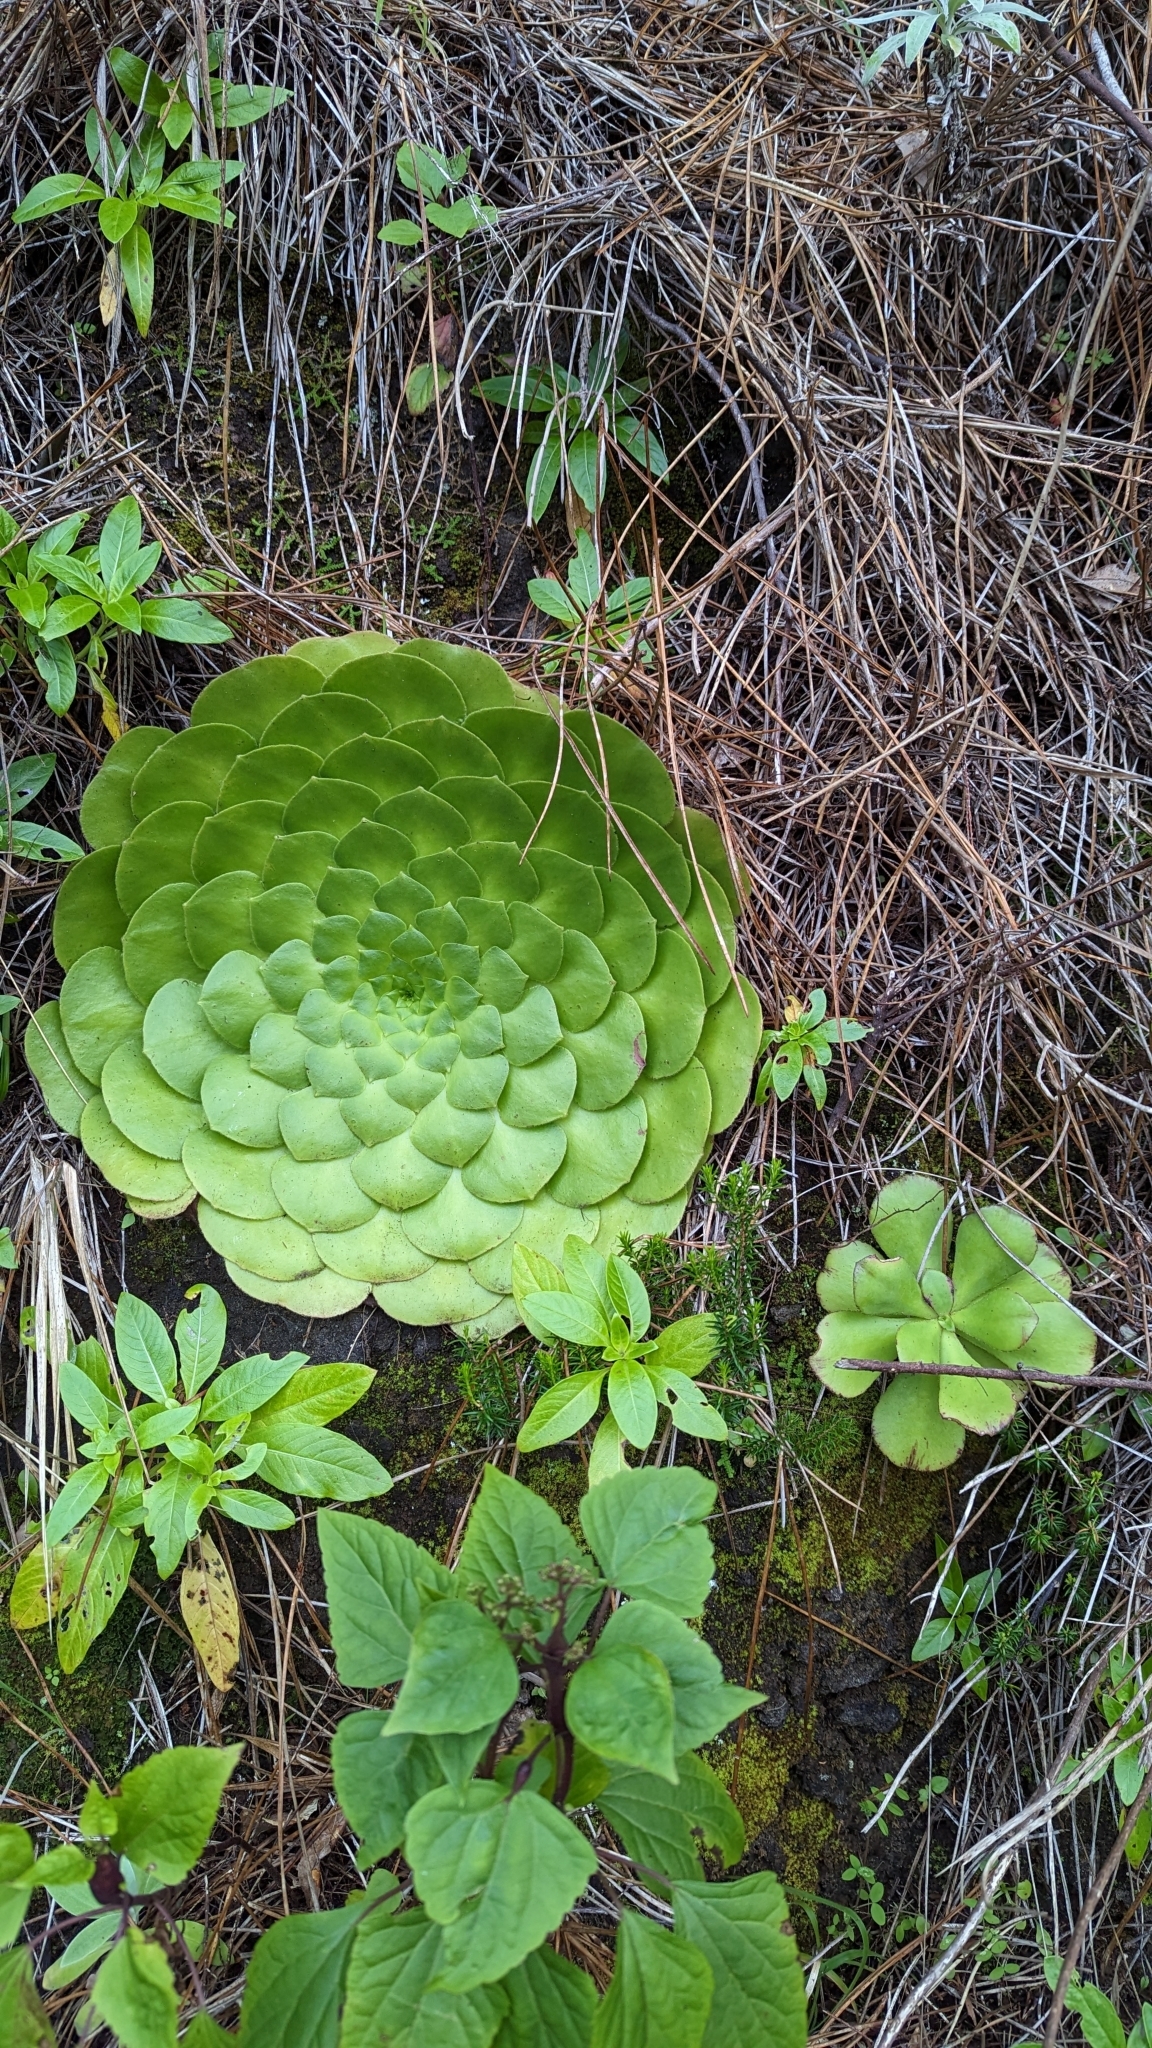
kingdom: Plantae
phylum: Tracheophyta
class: Magnoliopsida
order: Saxifragales
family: Crassulaceae
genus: Aeonium
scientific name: Aeonium glandulosum
